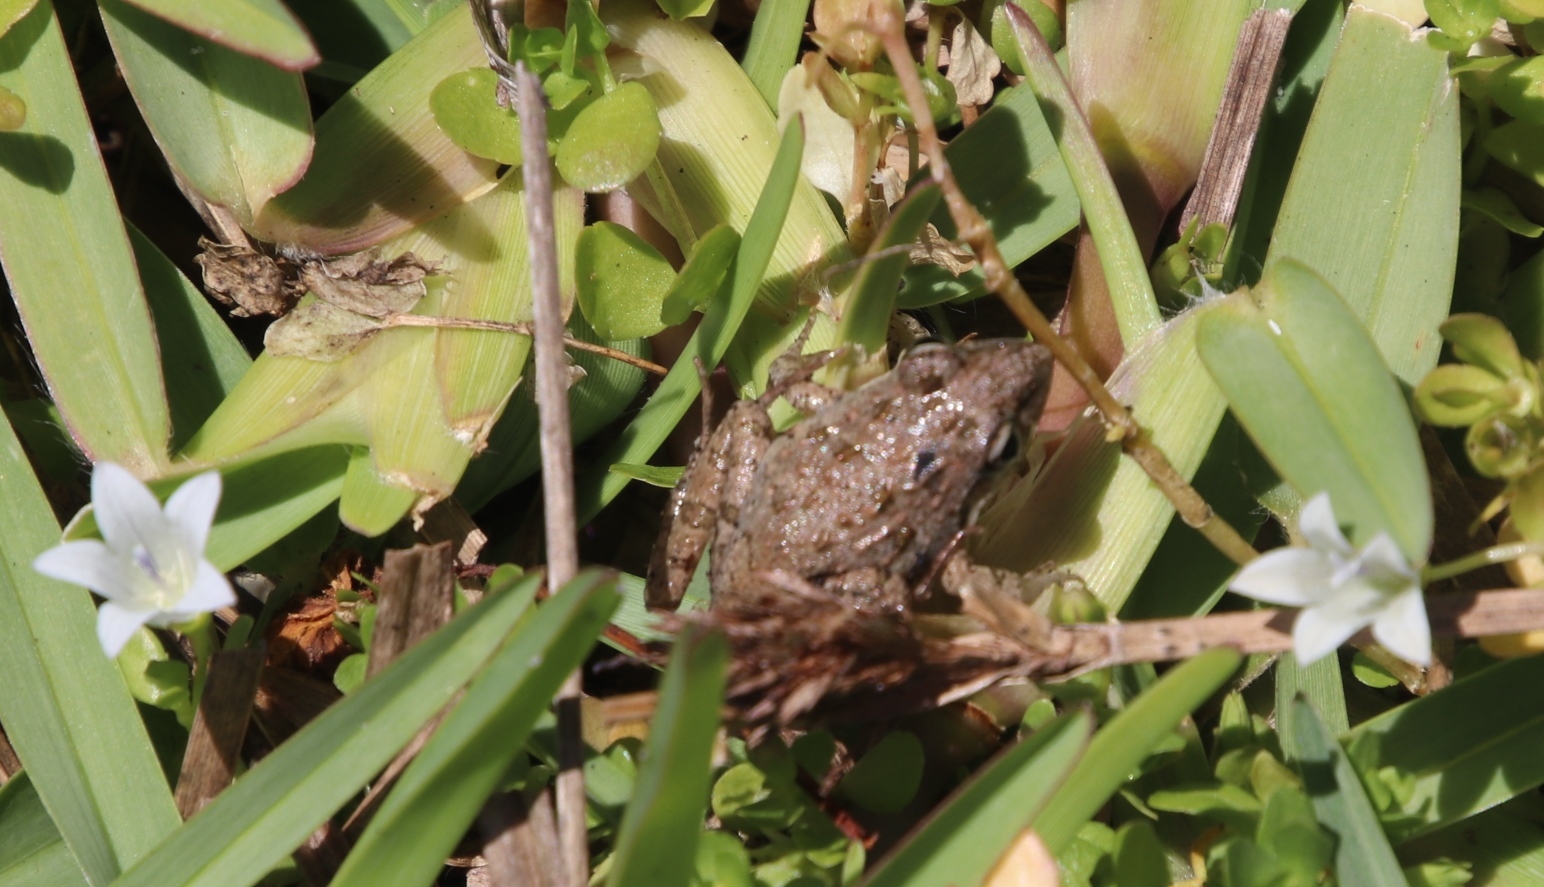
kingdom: Plantae
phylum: Tracheophyta
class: Magnoliopsida
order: Asterales
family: Campanulaceae
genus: Wahlenbergia
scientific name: Wahlenbergia procumbens
